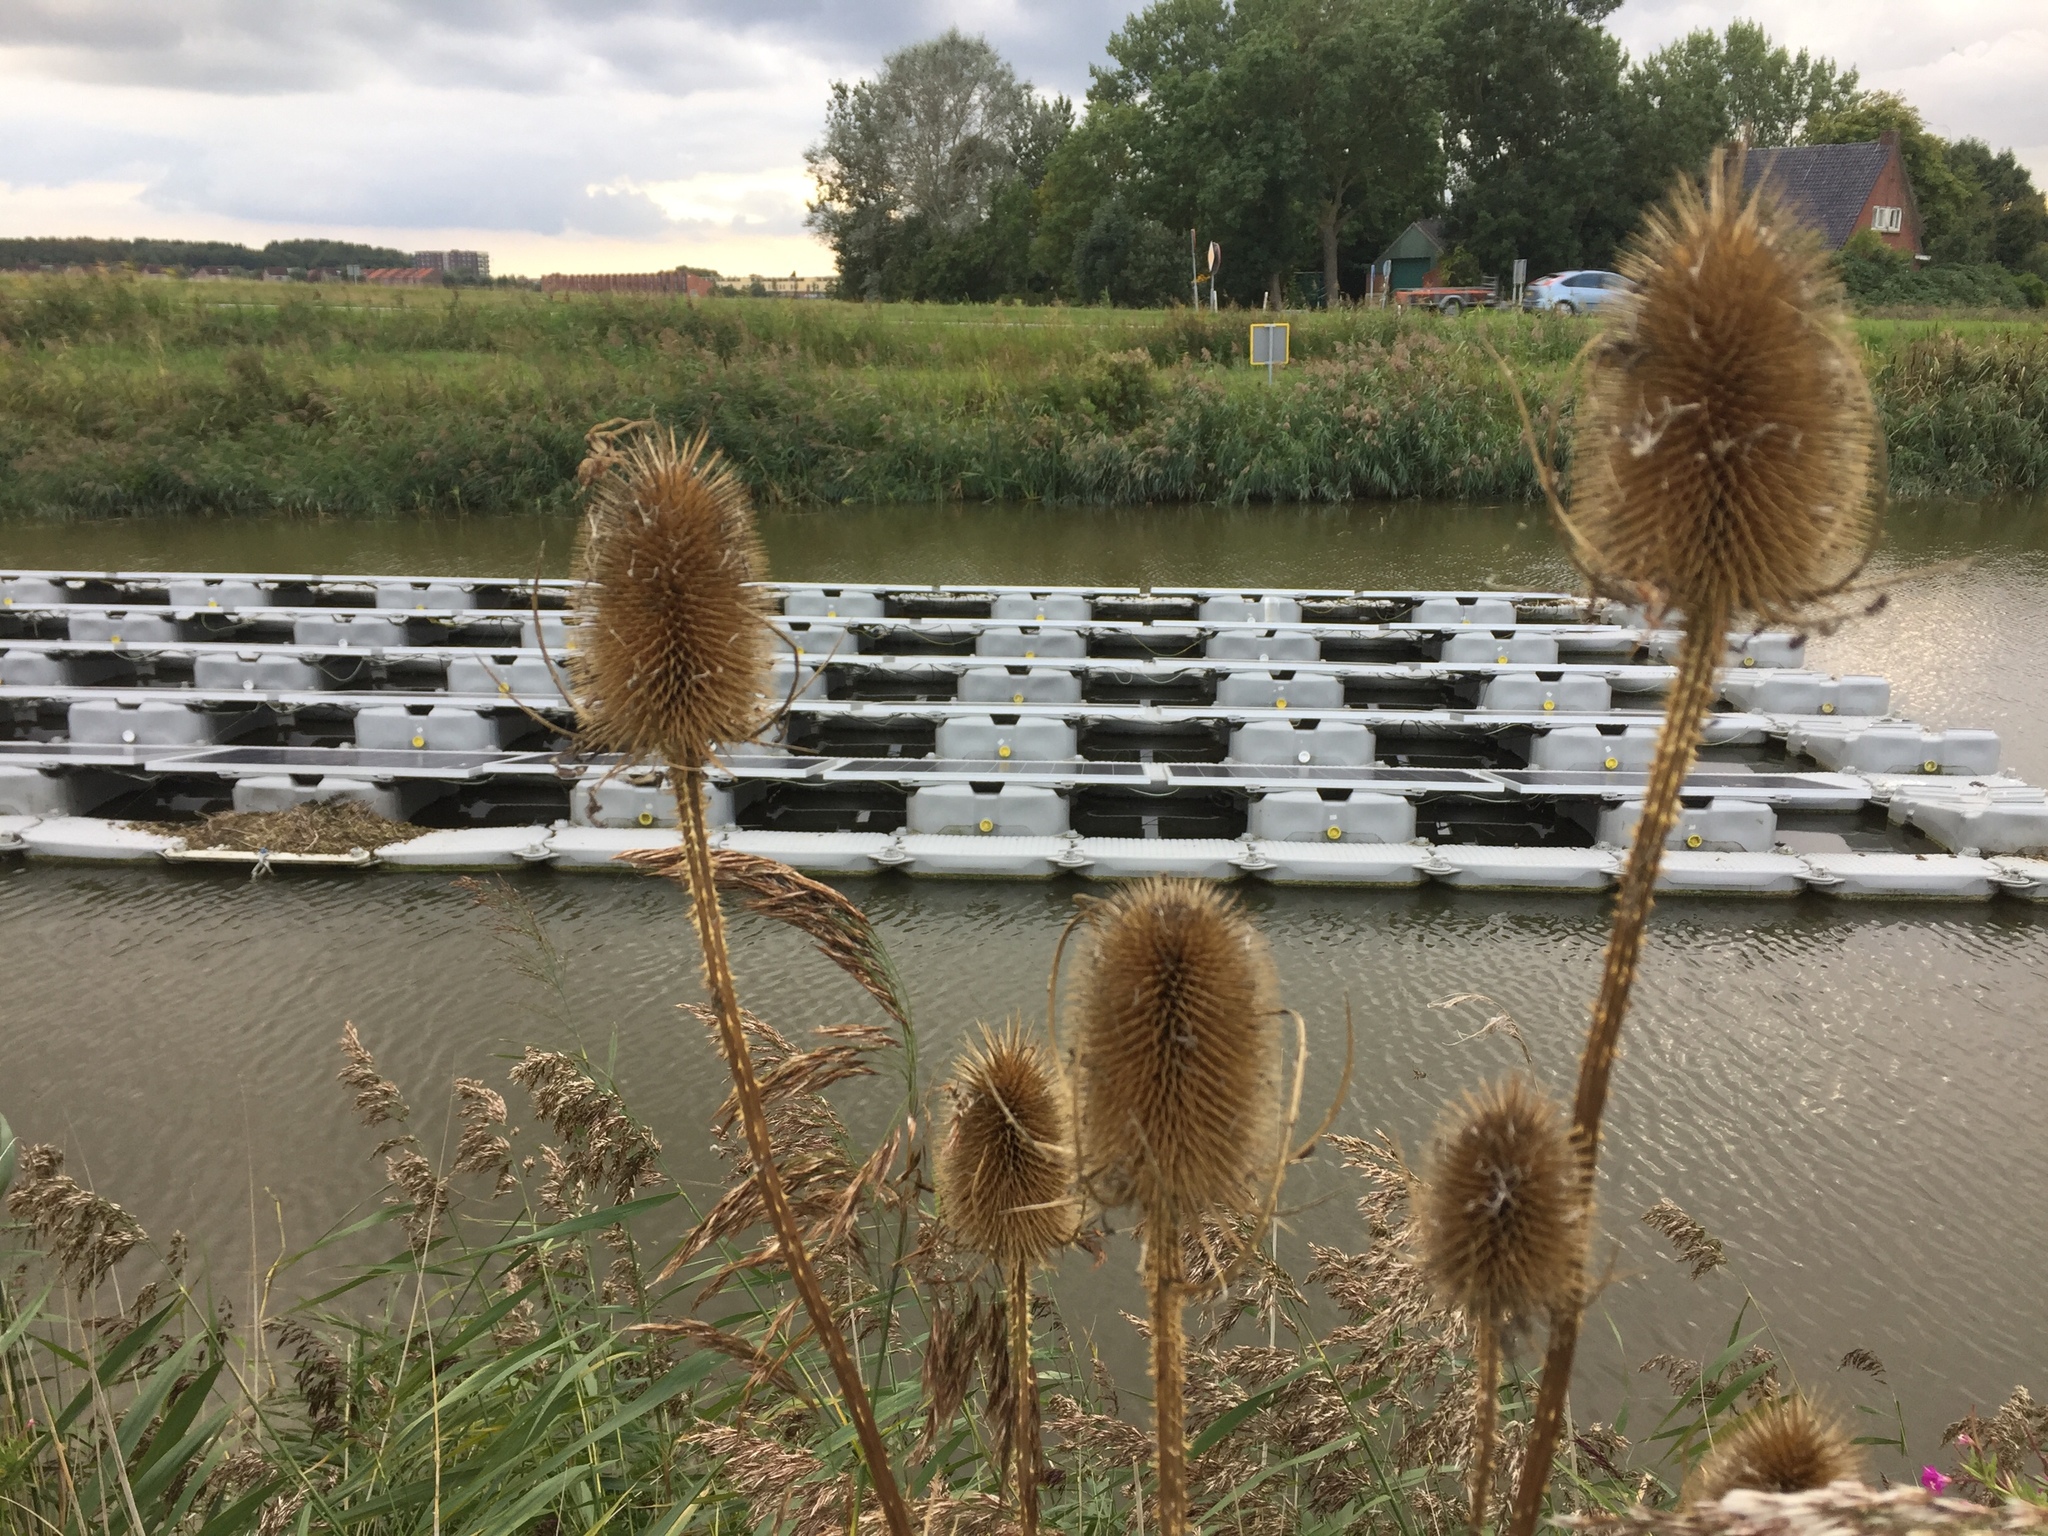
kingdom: Plantae
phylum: Tracheophyta
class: Magnoliopsida
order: Dipsacales
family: Caprifoliaceae
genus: Dipsacus
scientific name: Dipsacus fullonum
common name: Teasel
